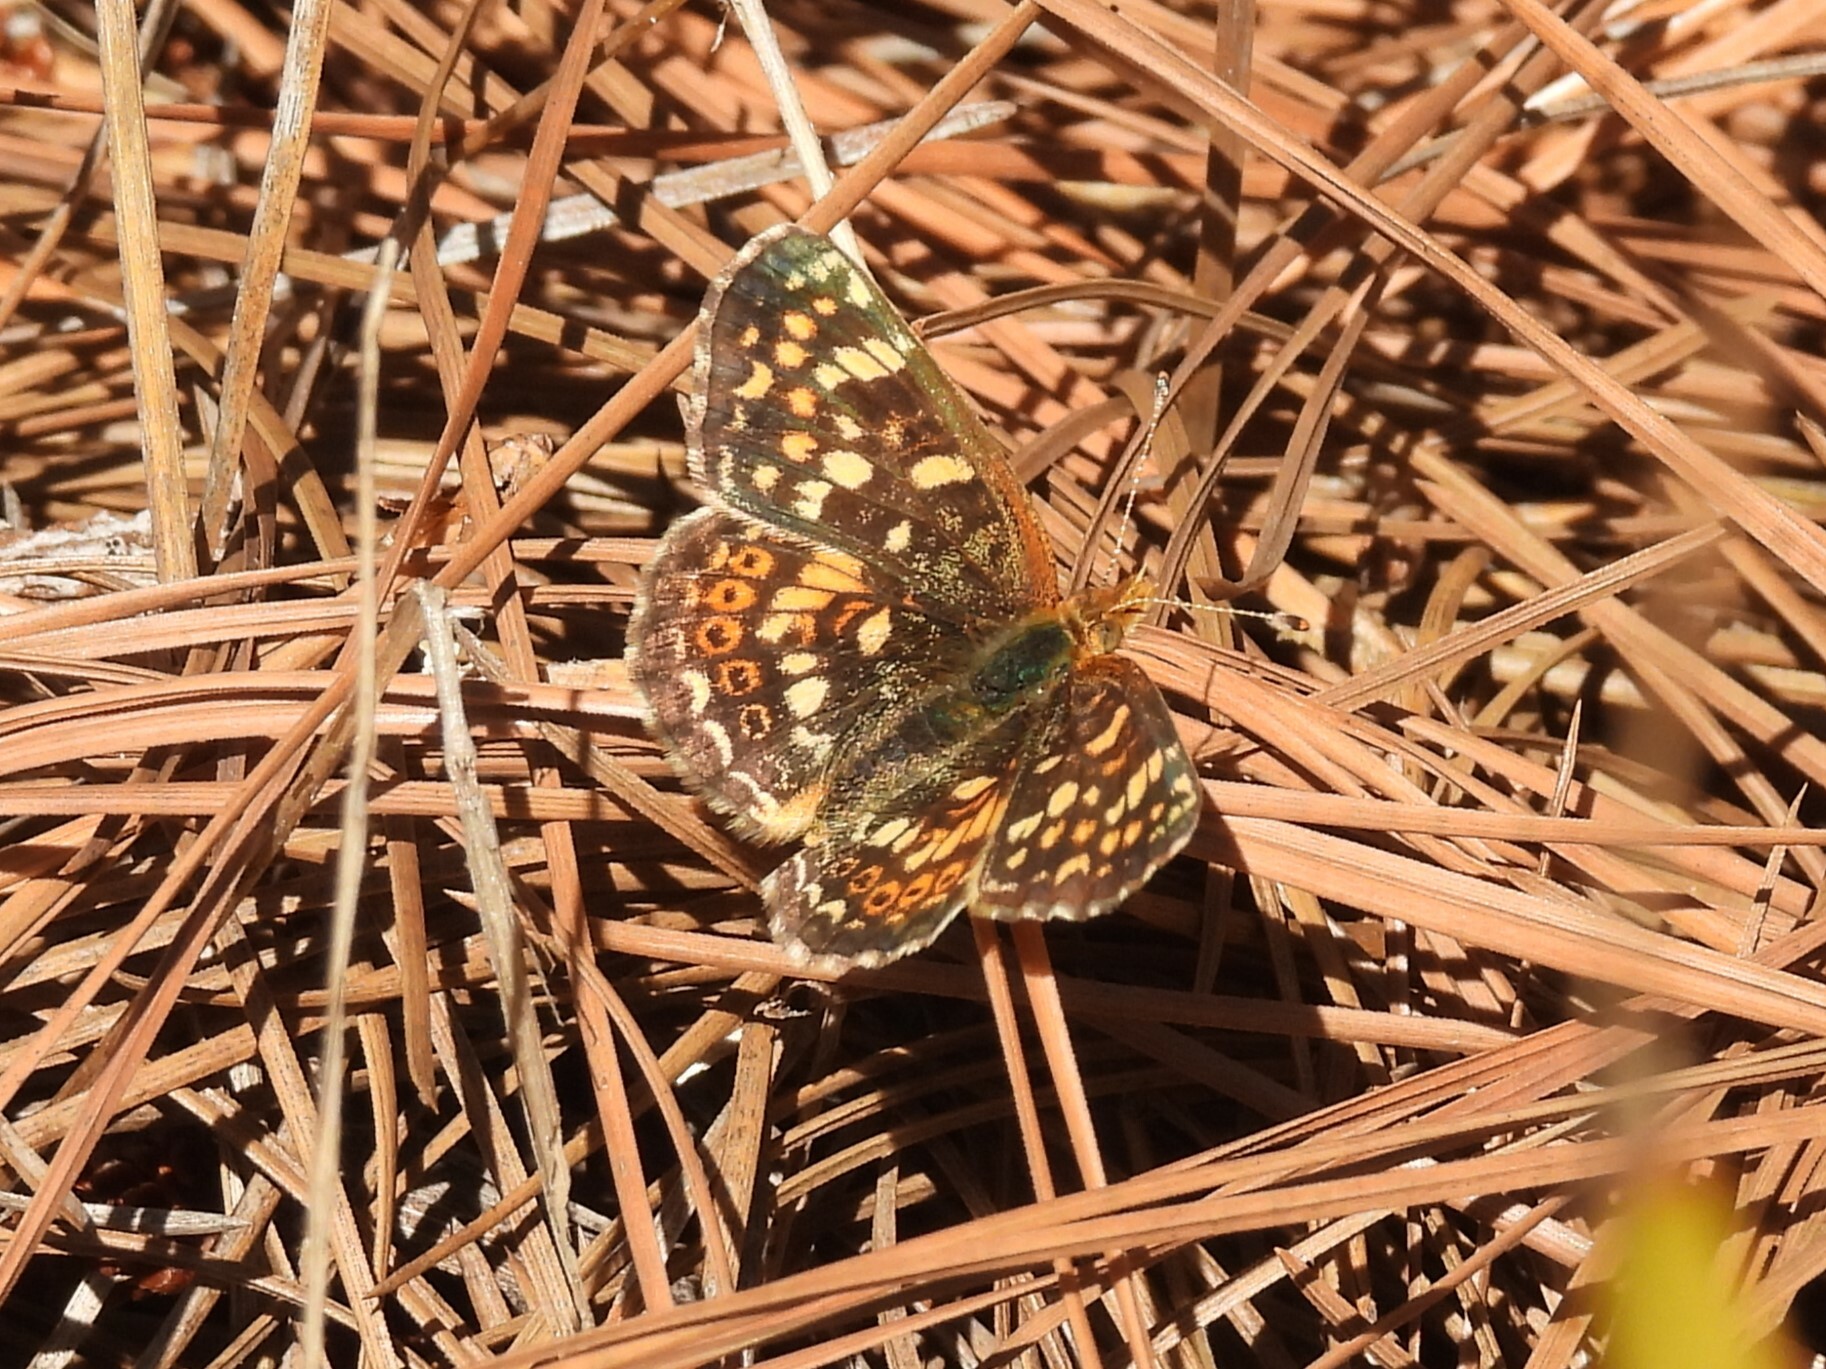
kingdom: Animalia
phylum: Arthropoda
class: Insecta
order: Lepidoptera
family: Nymphalidae
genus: Phyciodes
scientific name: Phyciodes tharos
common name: Pearl crescent
